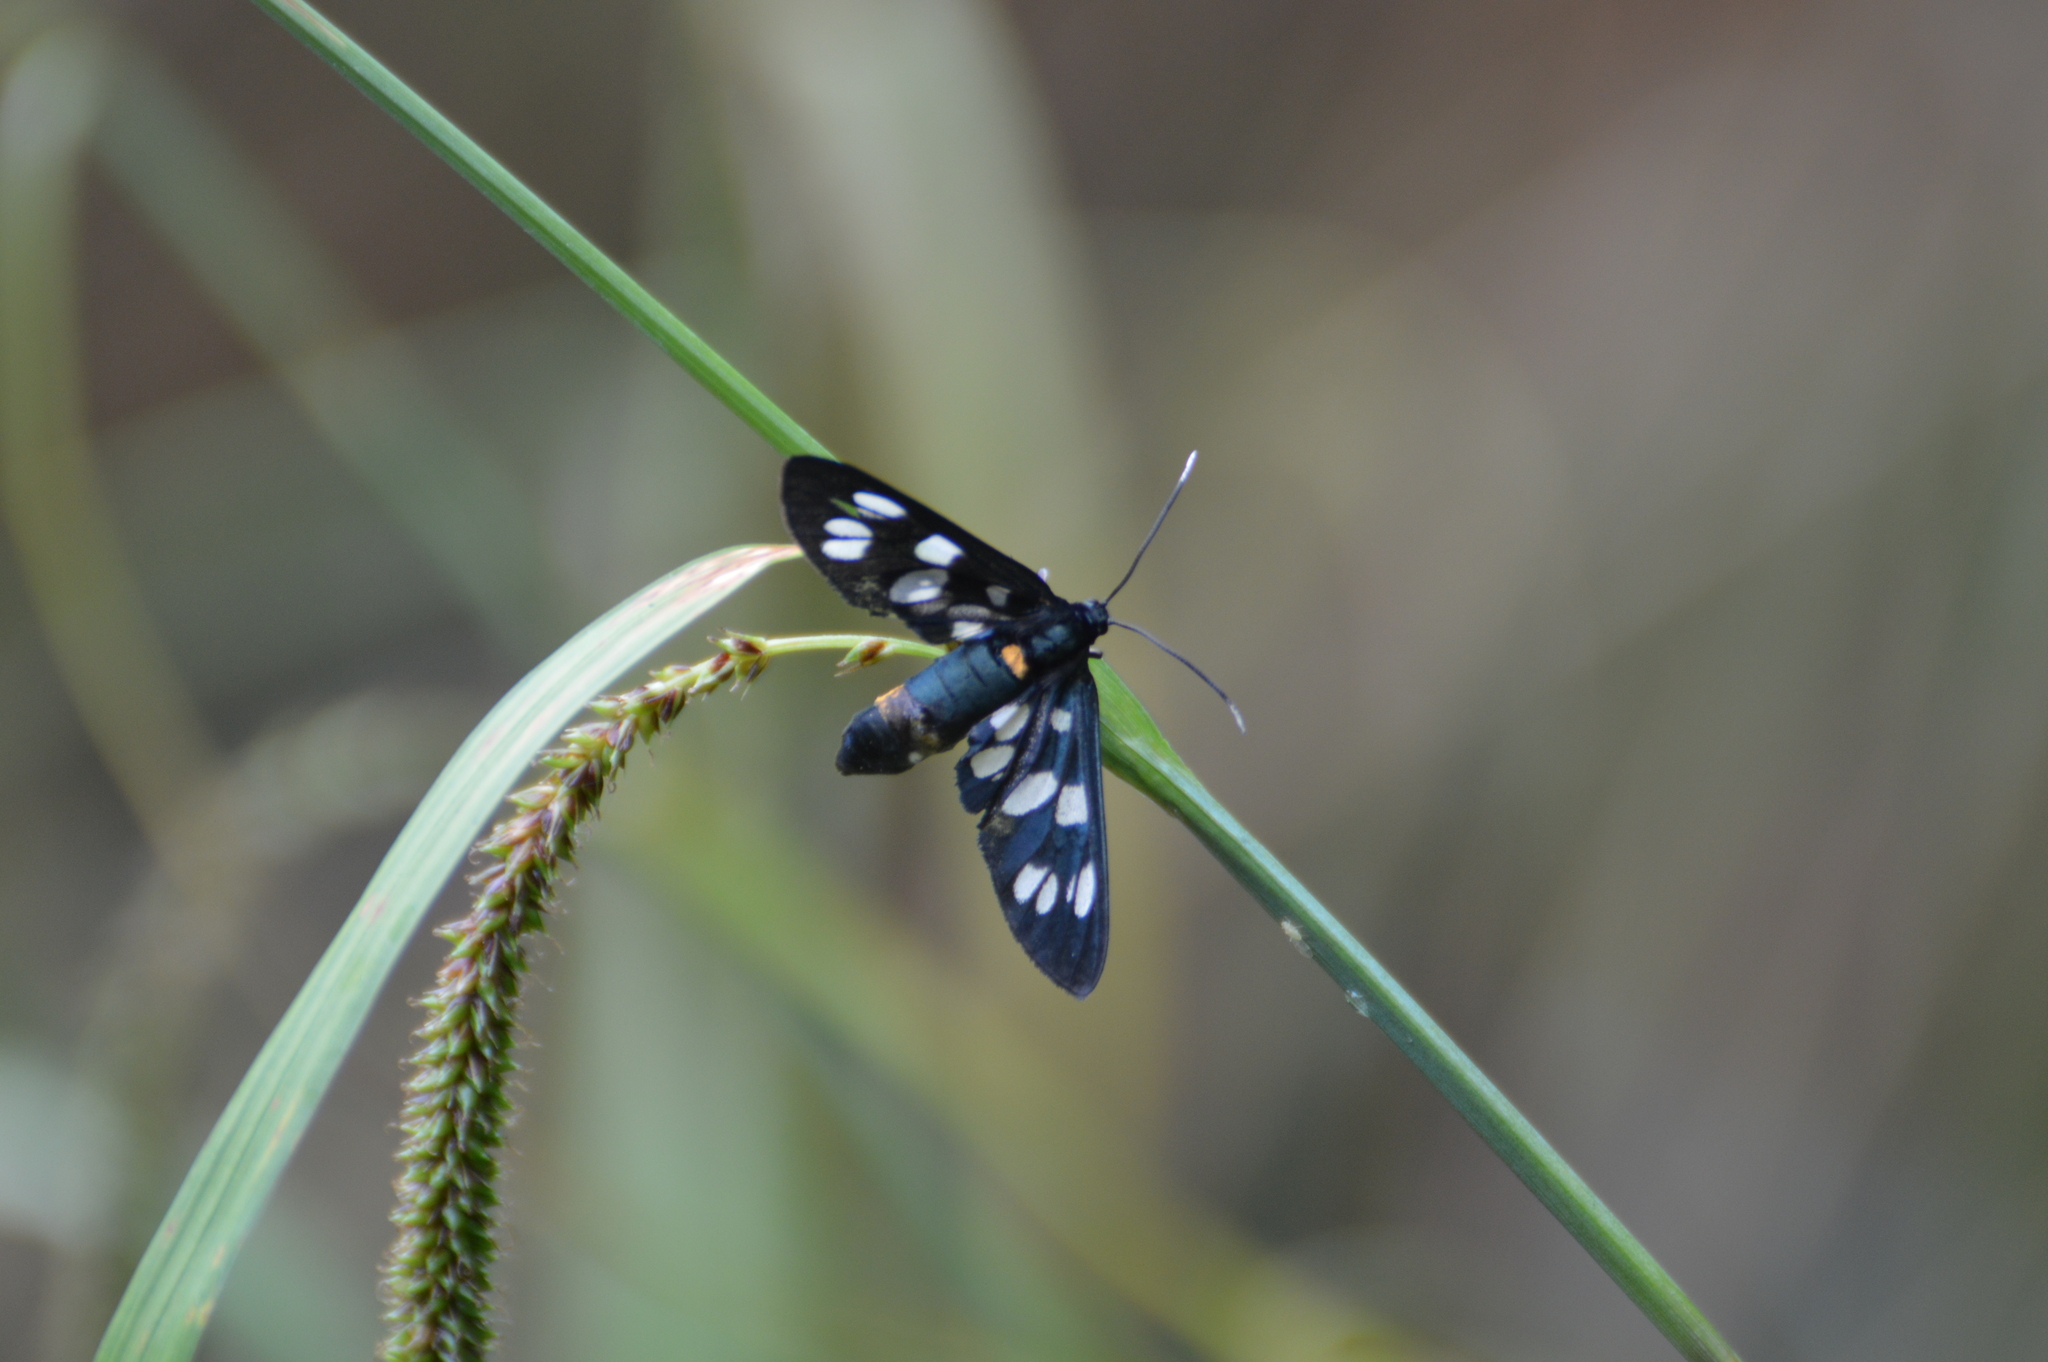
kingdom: Animalia
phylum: Arthropoda
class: Insecta
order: Lepidoptera
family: Erebidae
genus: Amata
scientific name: Amata phegea
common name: Nine-spotted
